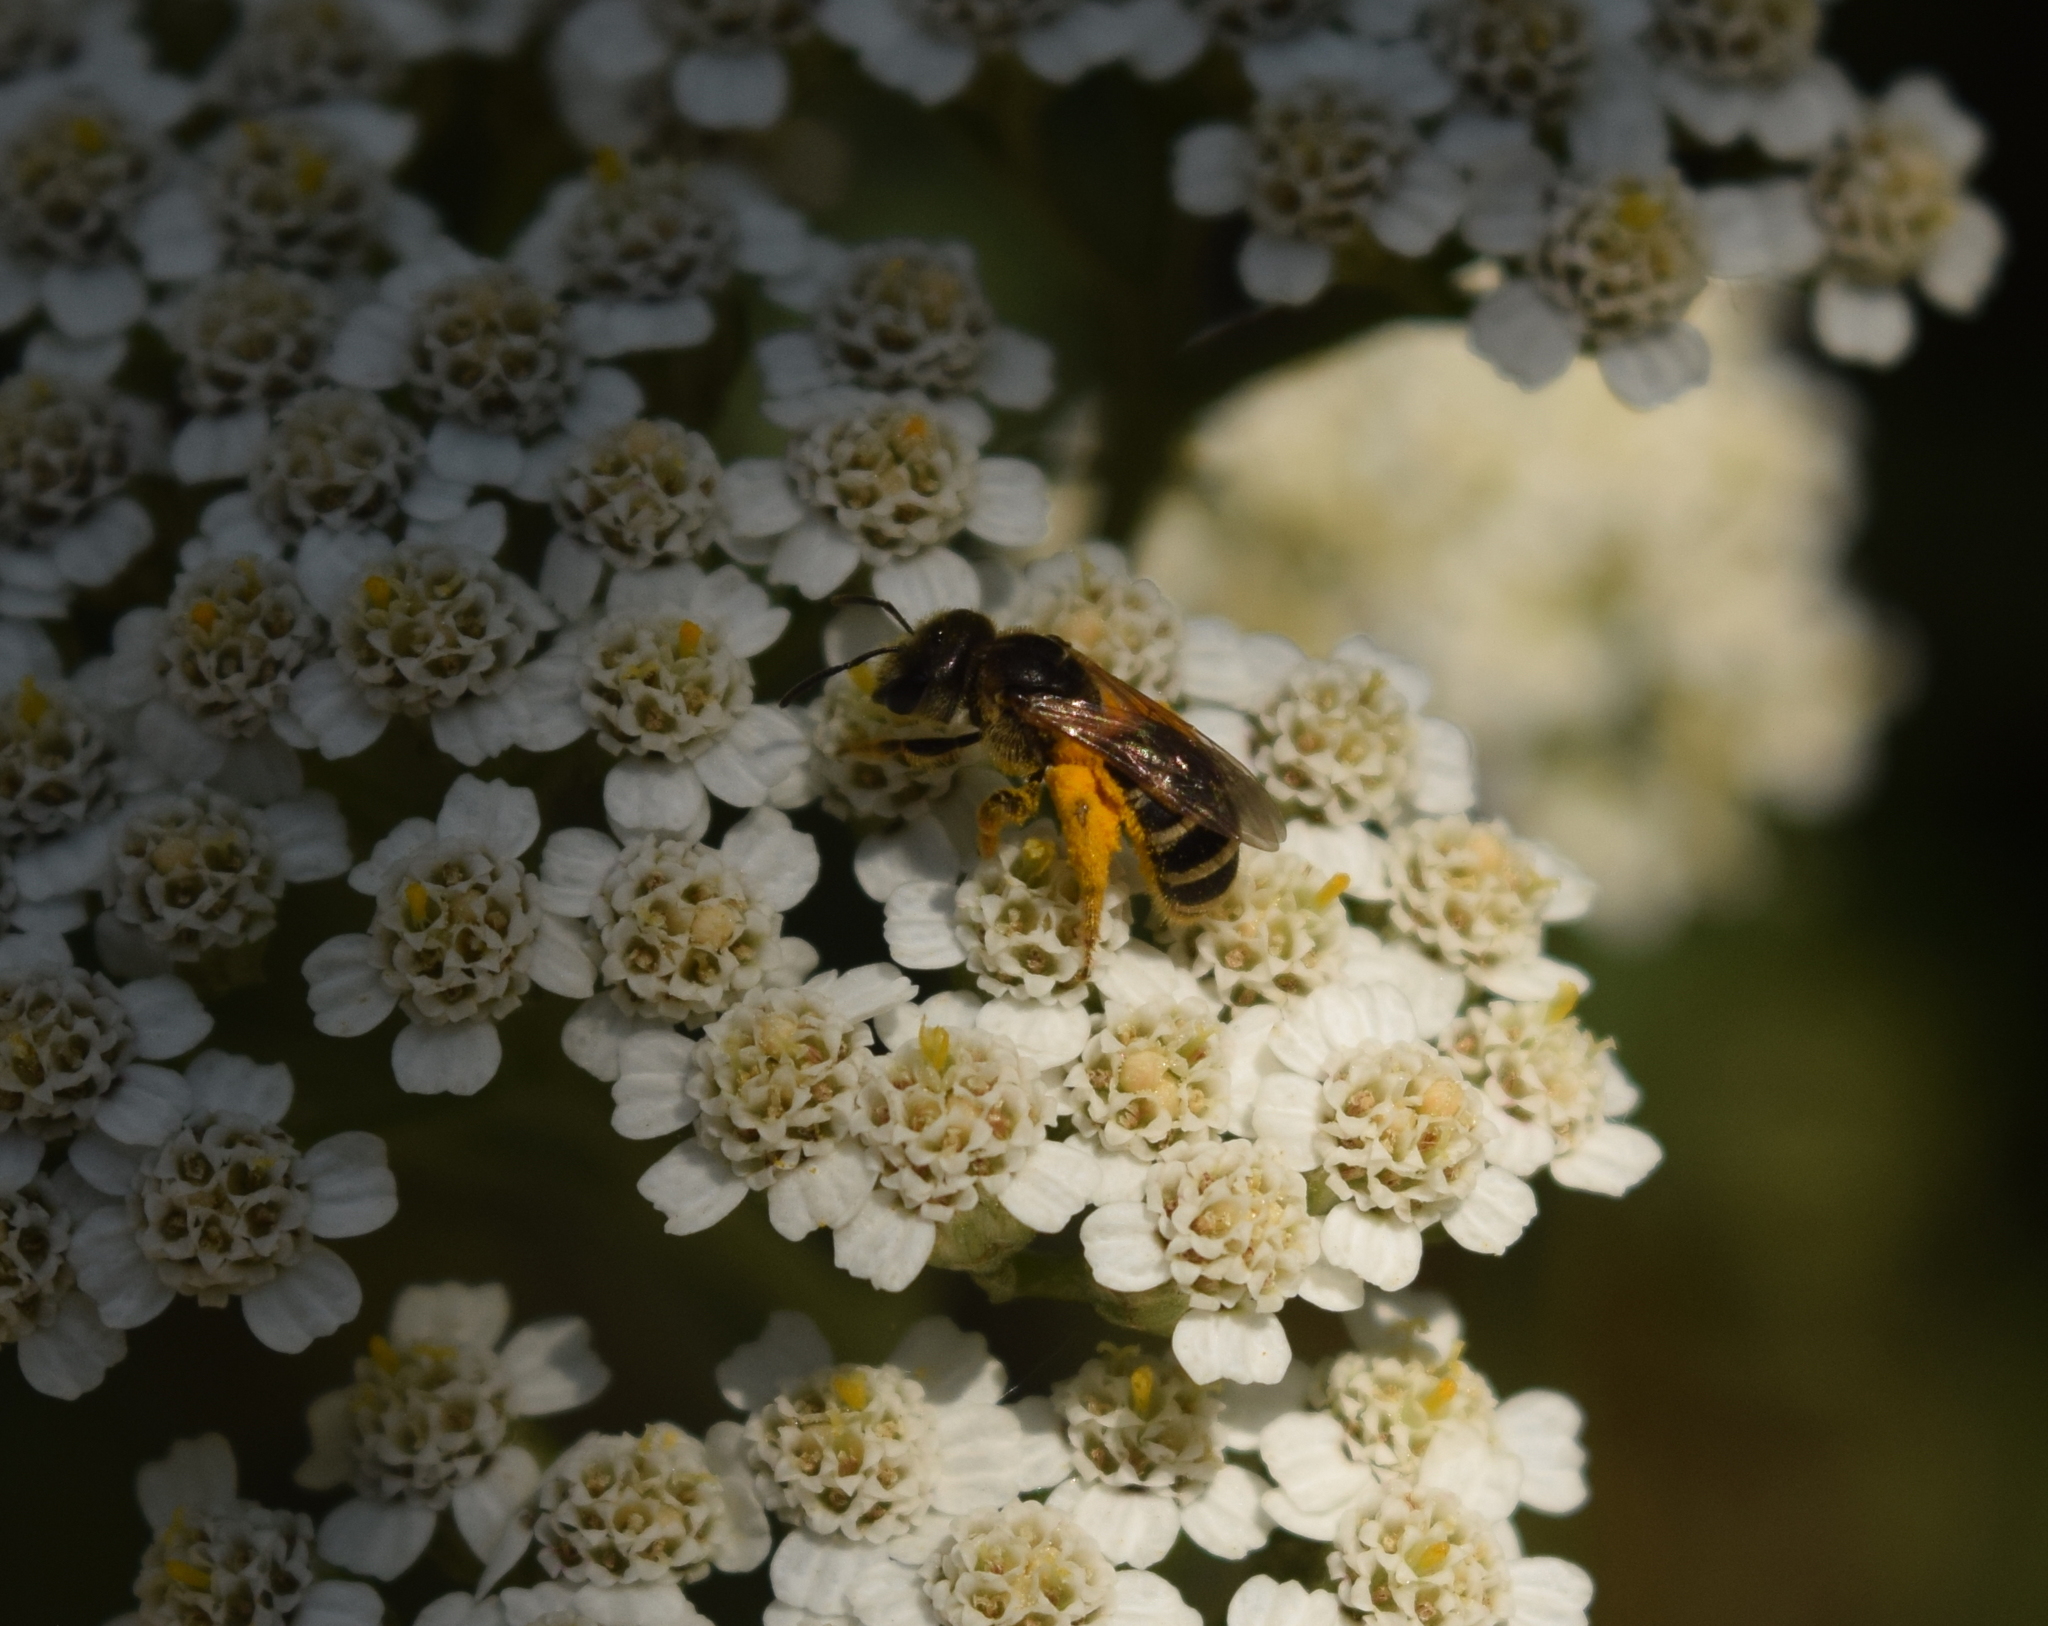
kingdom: Animalia
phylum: Arthropoda
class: Insecta
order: Hymenoptera
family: Halictidae
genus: Halictus
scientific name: Halictus ligatus
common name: Ligated furrow bee
